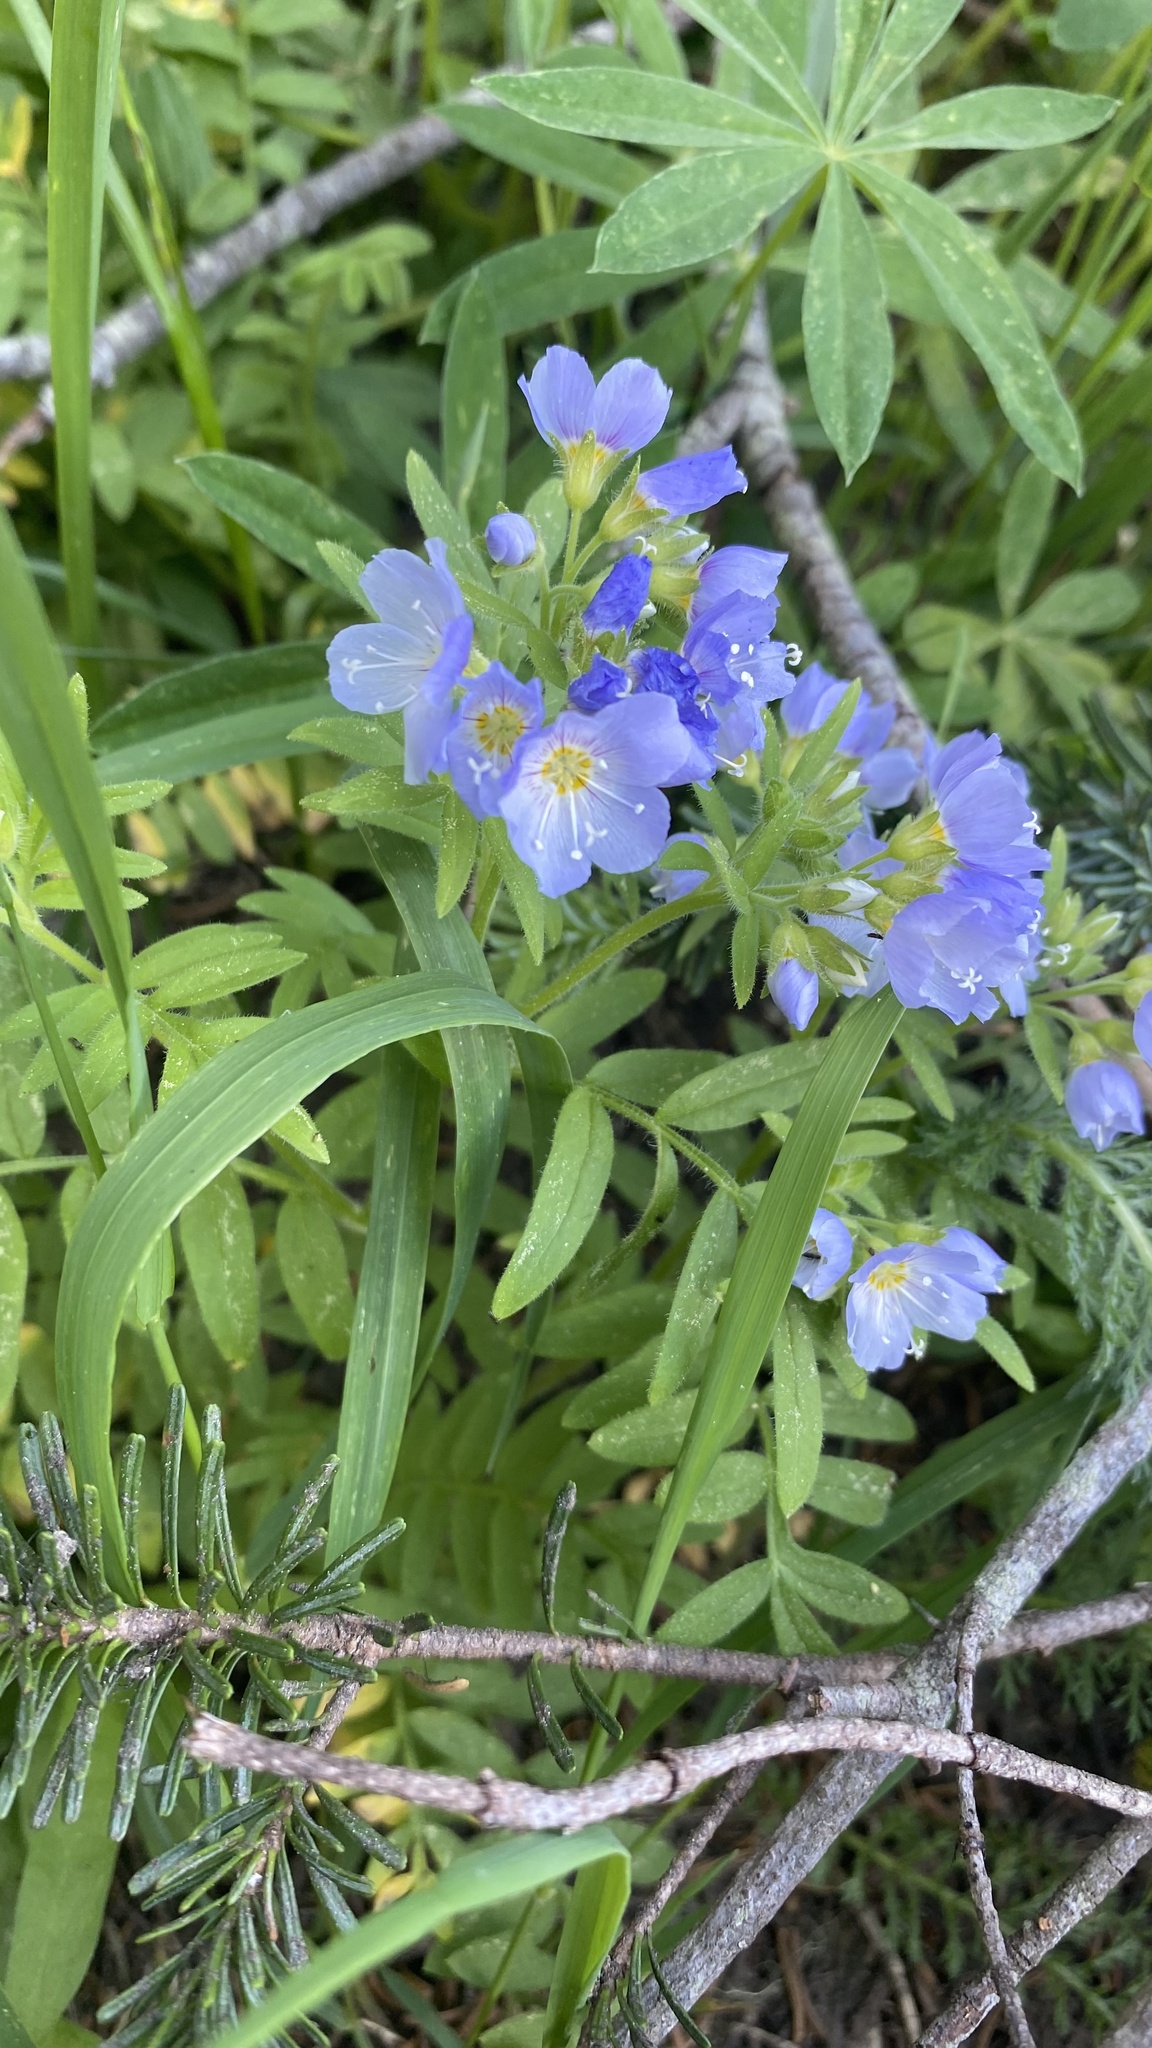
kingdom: Plantae
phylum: Tracheophyta
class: Magnoliopsida
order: Ericales
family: Polemoniaceae
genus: Polemonium
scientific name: Polemonium californicum
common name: California jacob's ladder
